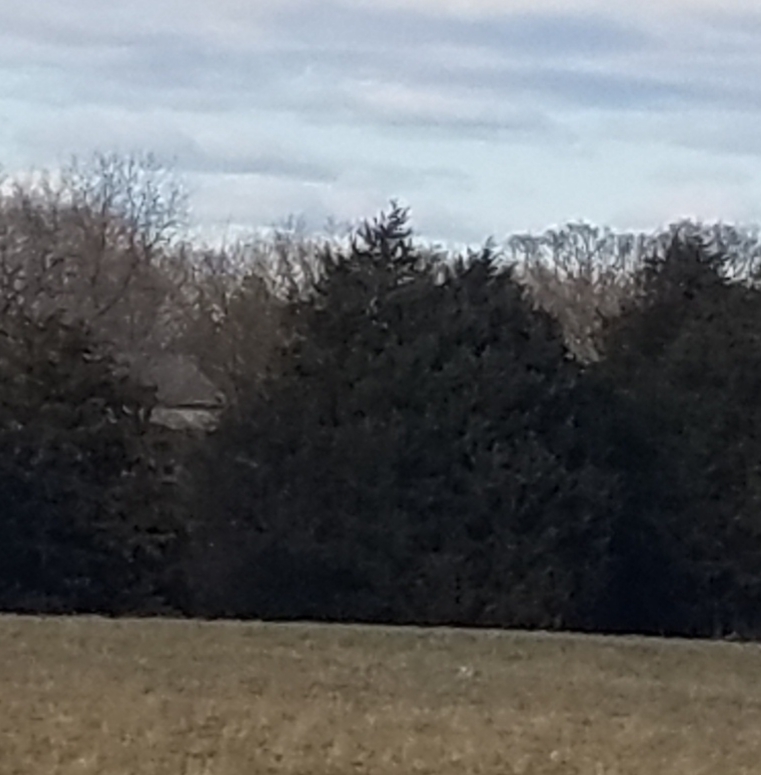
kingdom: Plantae
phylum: Tracheophyta
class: Pinopsida
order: Pinales
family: Cupressaceae
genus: Juniperus
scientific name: Juniperus virginiana
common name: Red juniper
